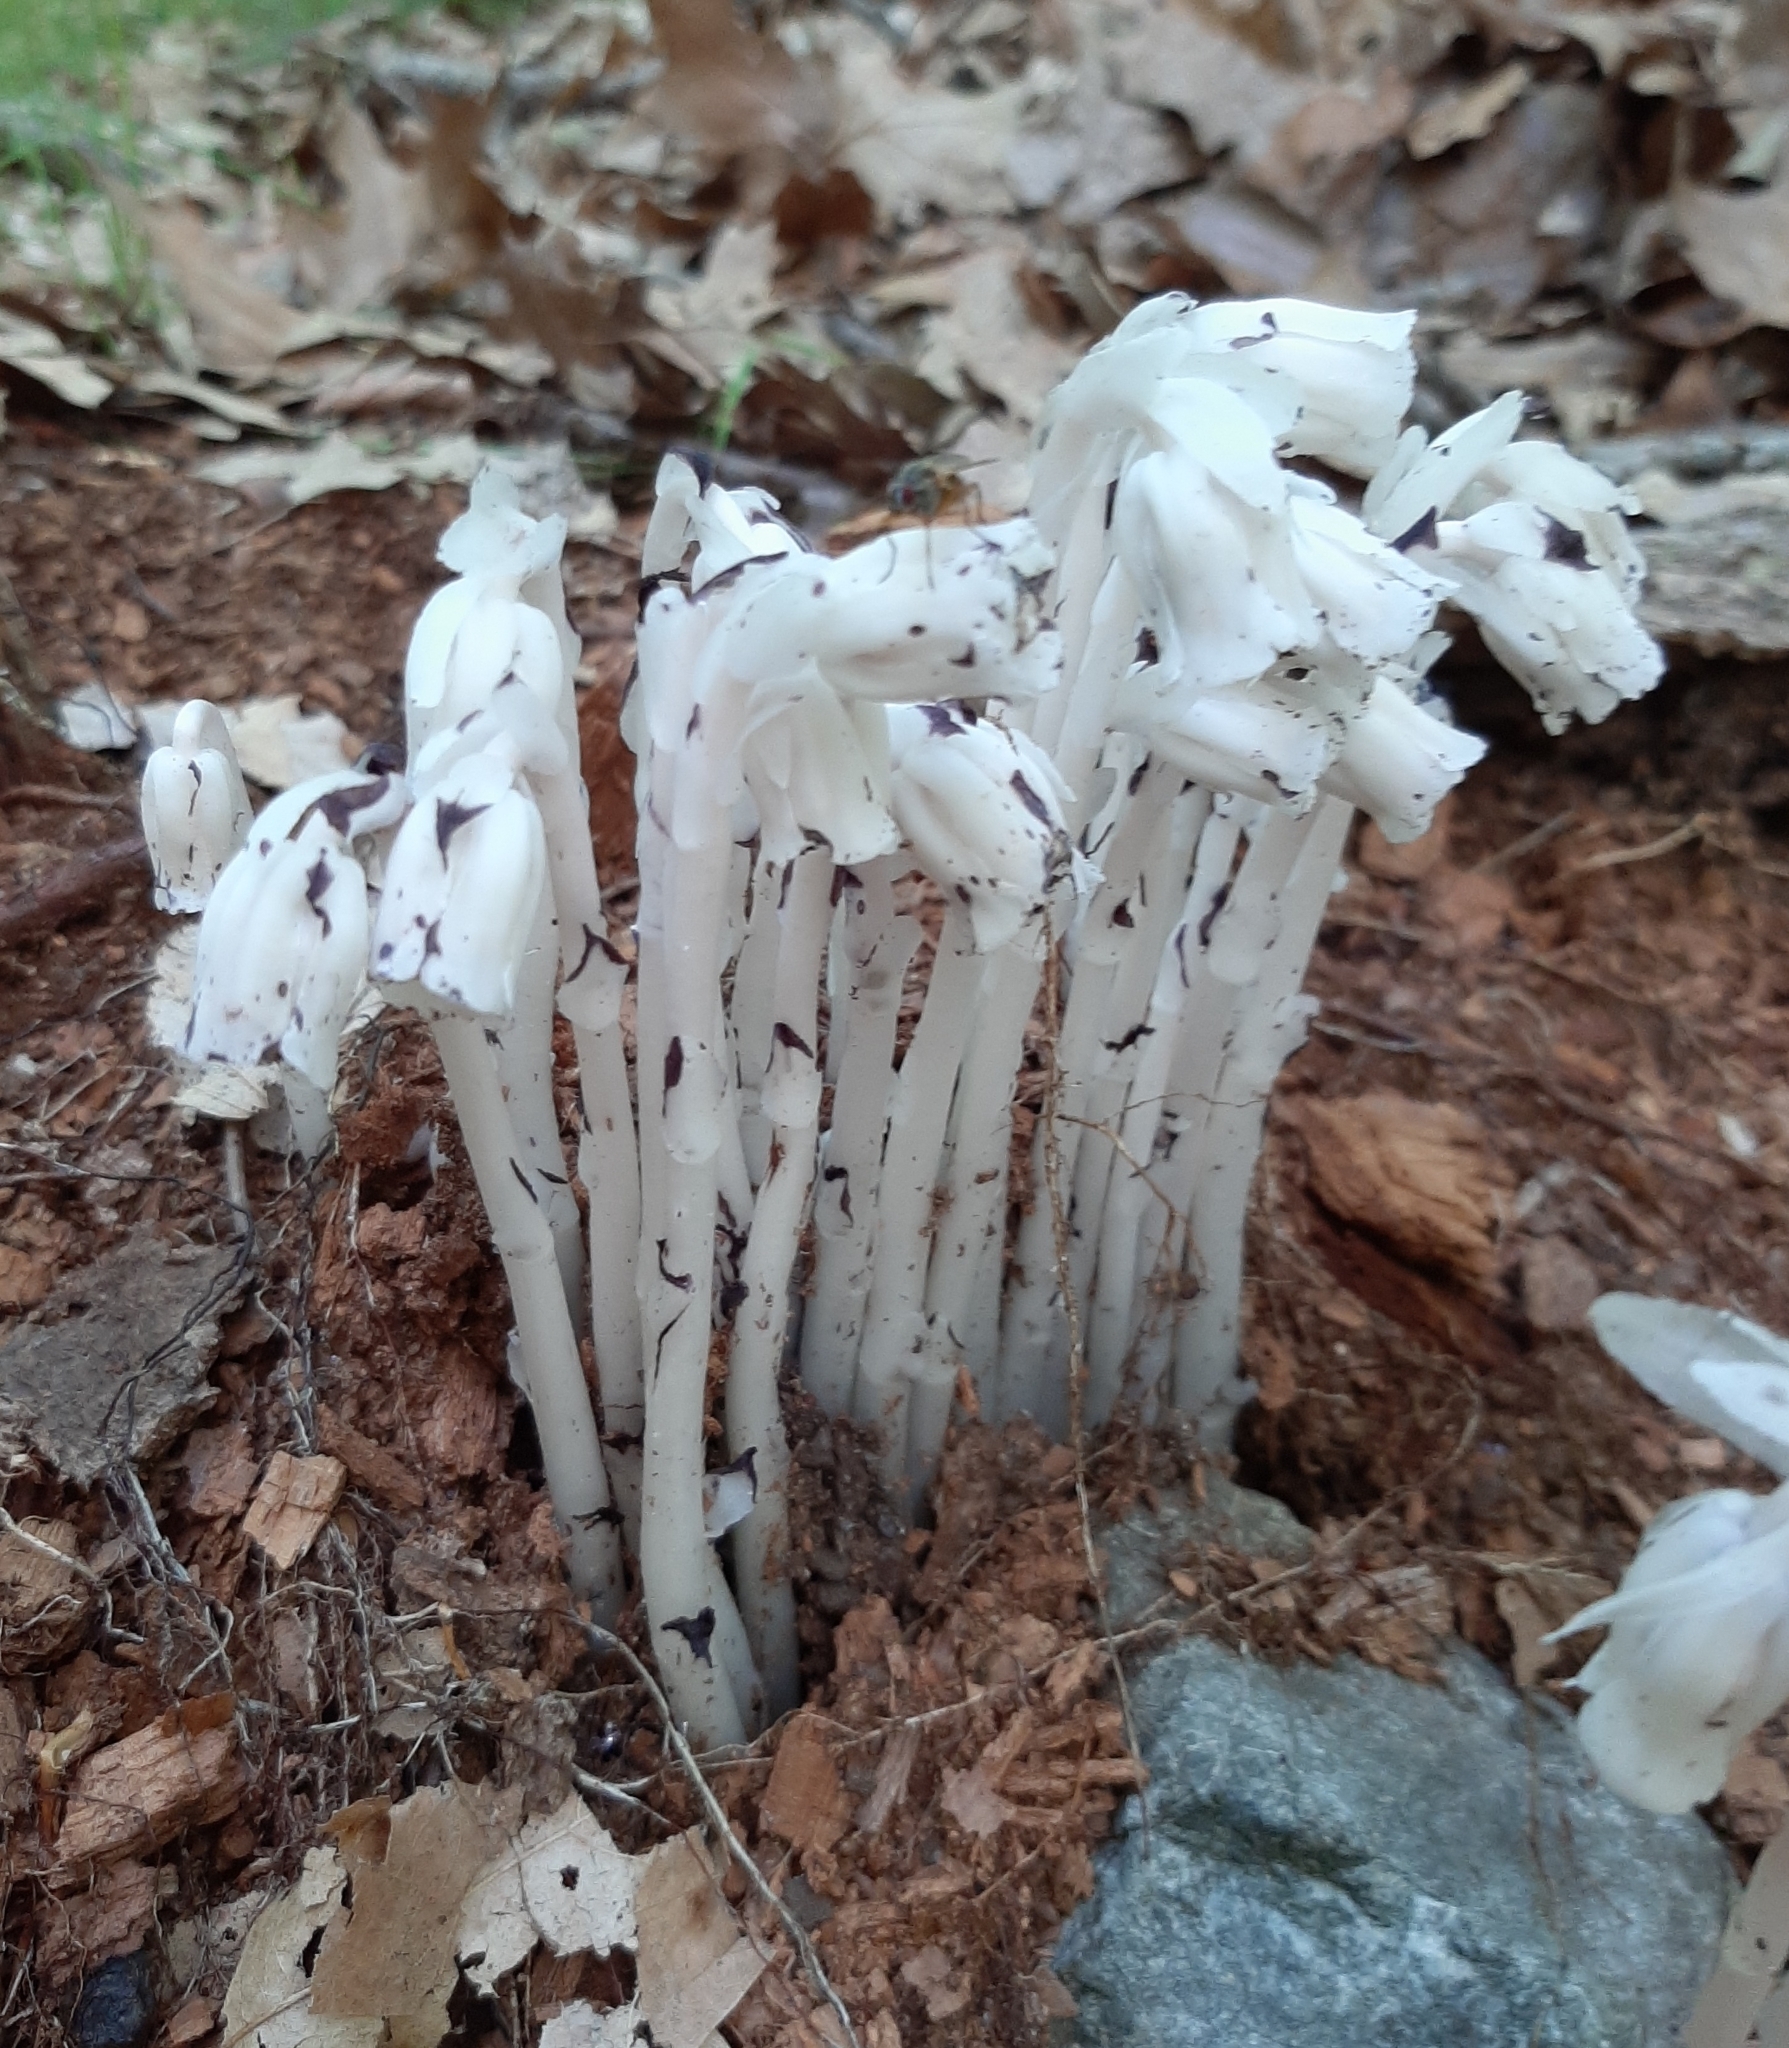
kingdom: Plantae
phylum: Tracheophyta
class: Magnoliopsida
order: Ericales
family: Ericaceae
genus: Monotropa
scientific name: Monotropa uniflora
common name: Convulsion root
